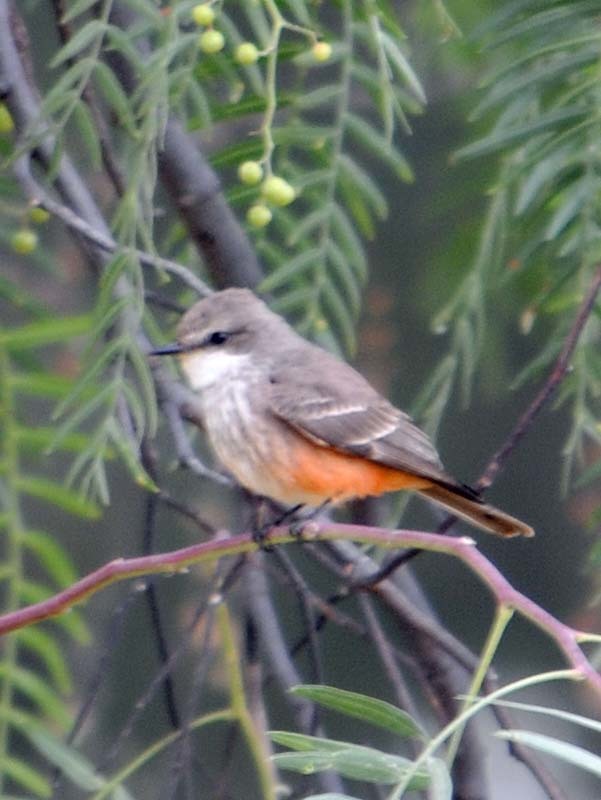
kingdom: Animalia
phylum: Chordata
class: Aves
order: Passeriformes
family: Tyrannidae
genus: Pyrocephalus
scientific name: Pyrocephalus rubinus
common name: Vermilion flycatcher
